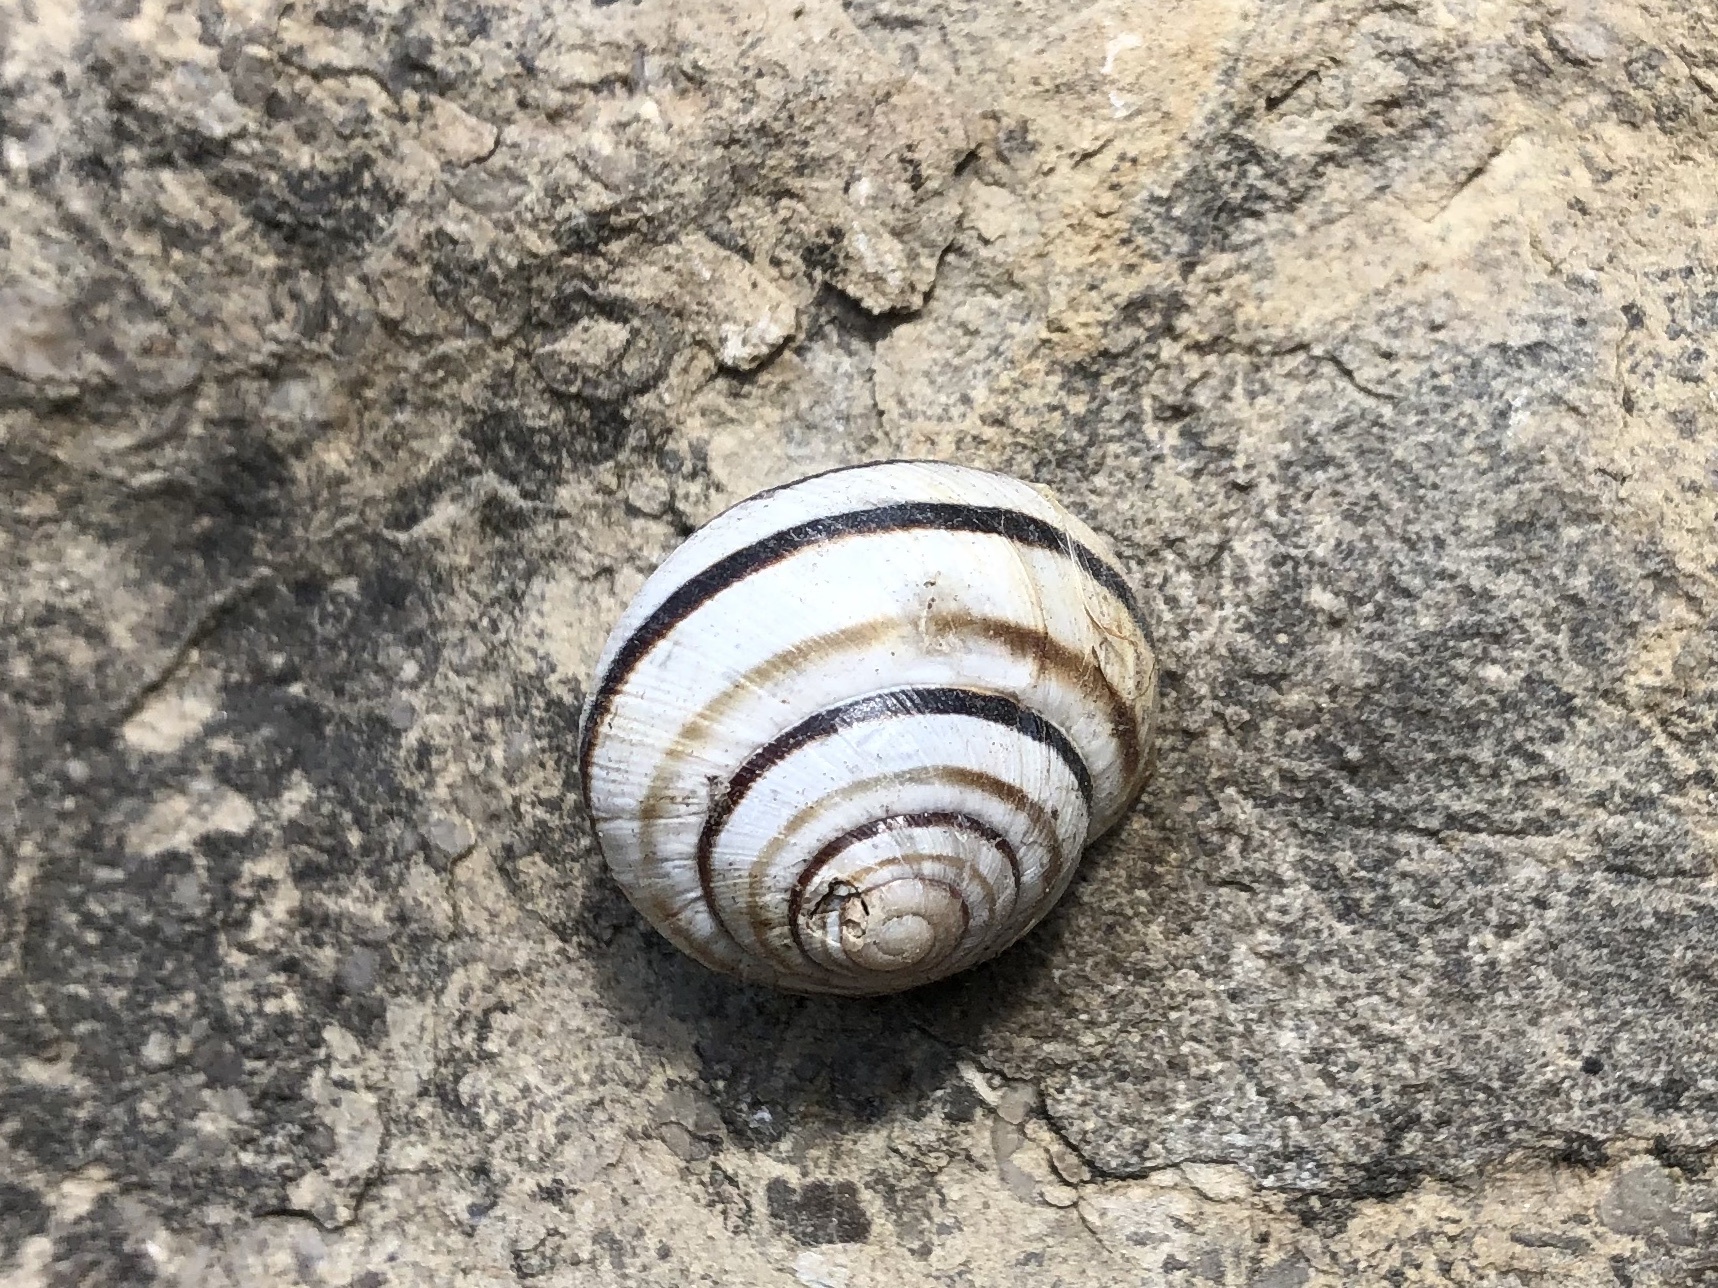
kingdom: Animalia
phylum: Mollusca
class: Gastropoda
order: Stylommatophora
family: Helicidae
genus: Caucasotachea
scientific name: Caucasotachea vindobonensis
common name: European helicid land snail
